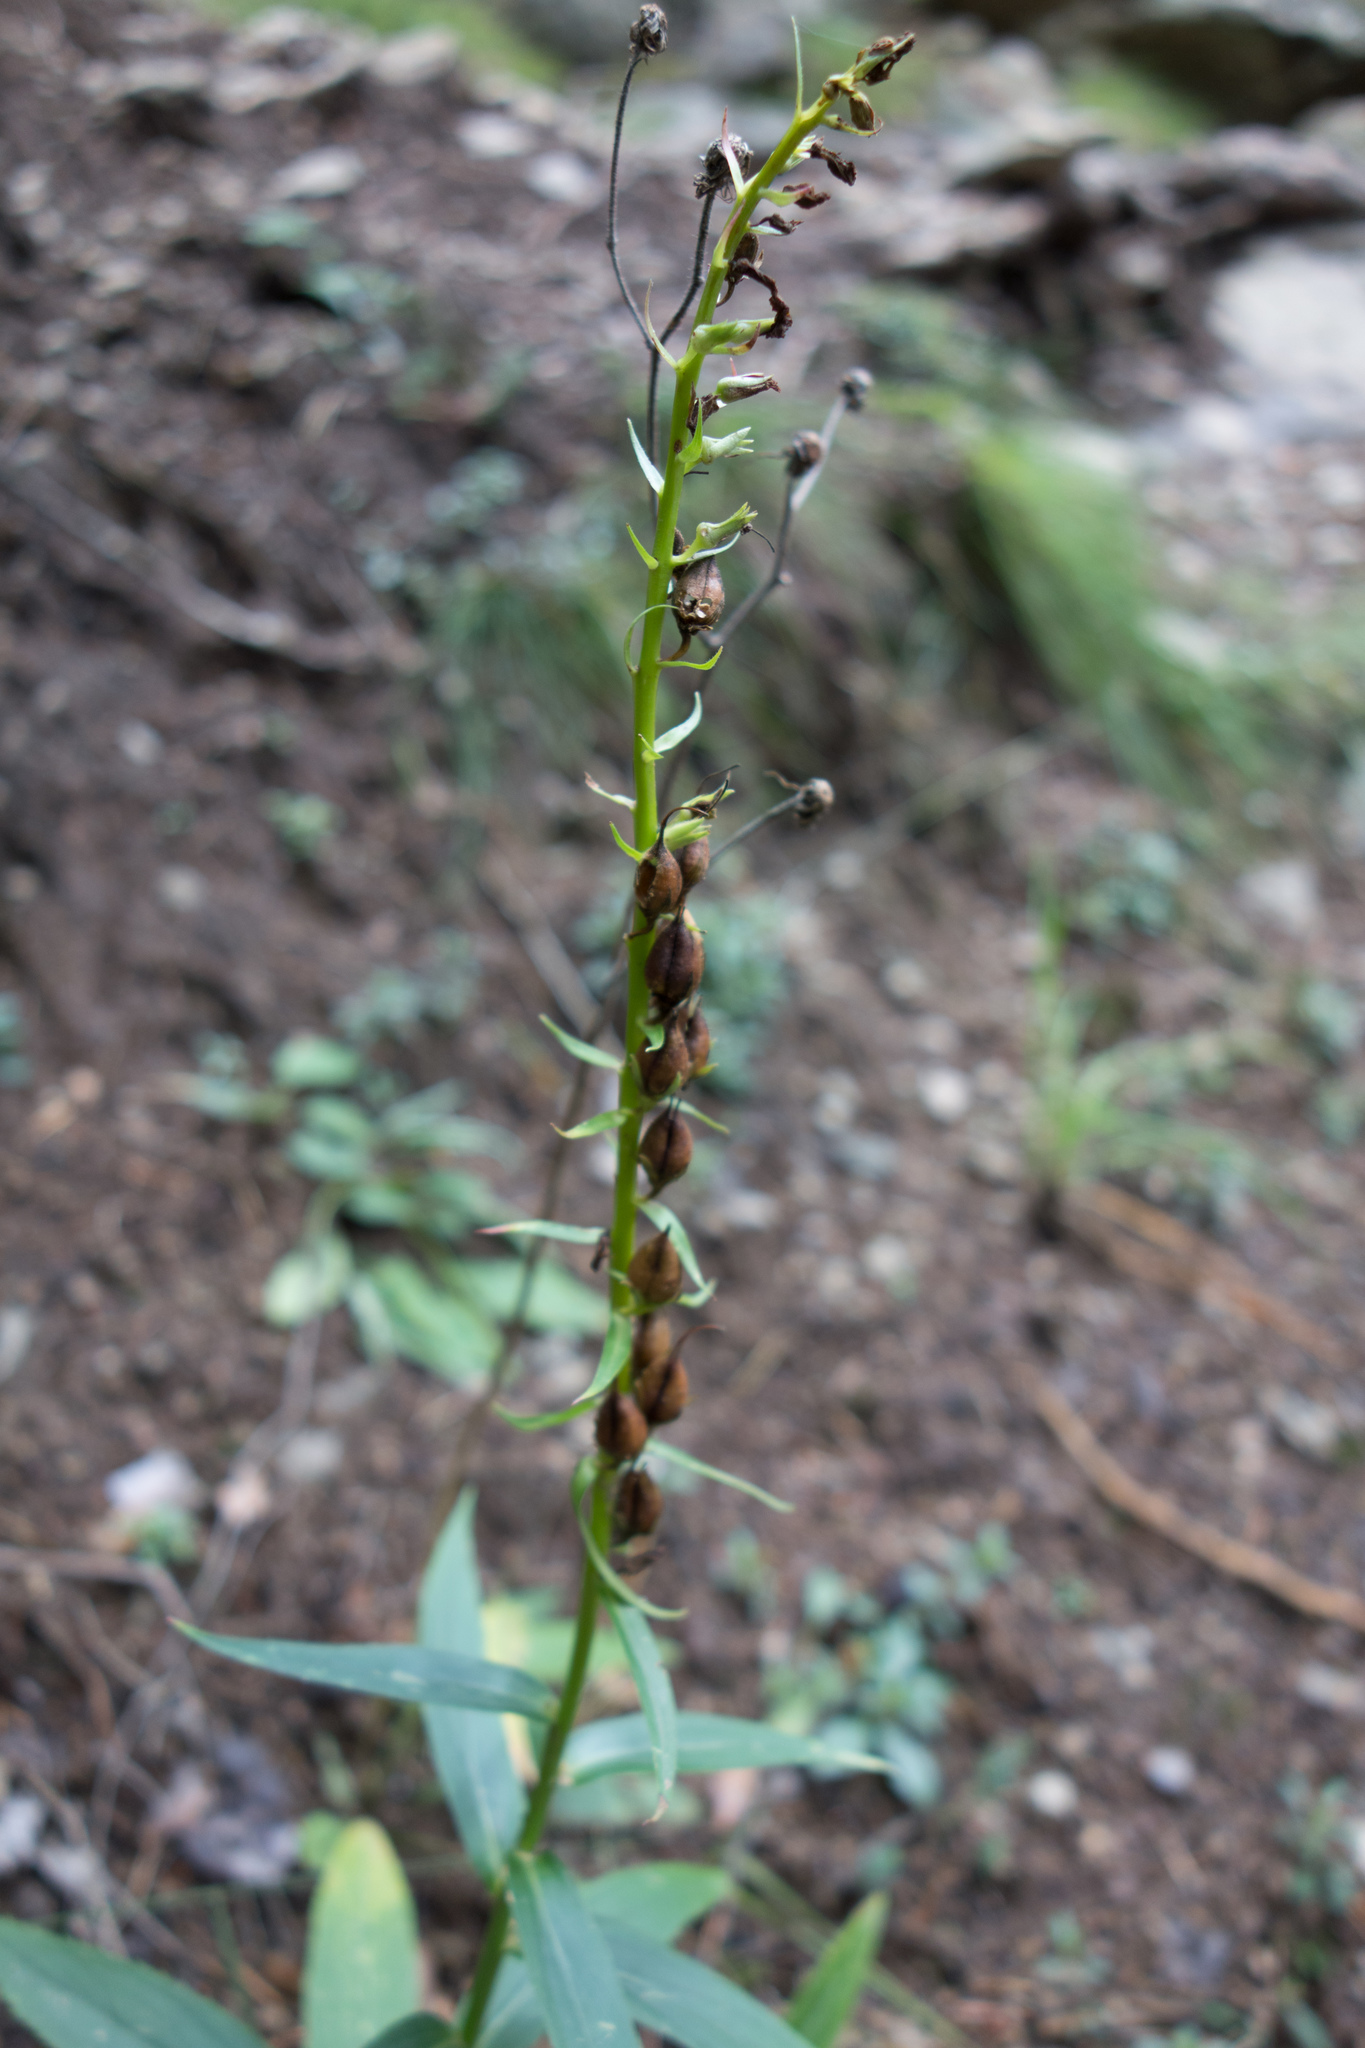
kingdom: Plantae
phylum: Tracheophyta
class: Magnoliopsida
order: Lamiales
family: Plantaginaceae
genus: Digitalis
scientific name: Digitalis lutea
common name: Straw foxglove
